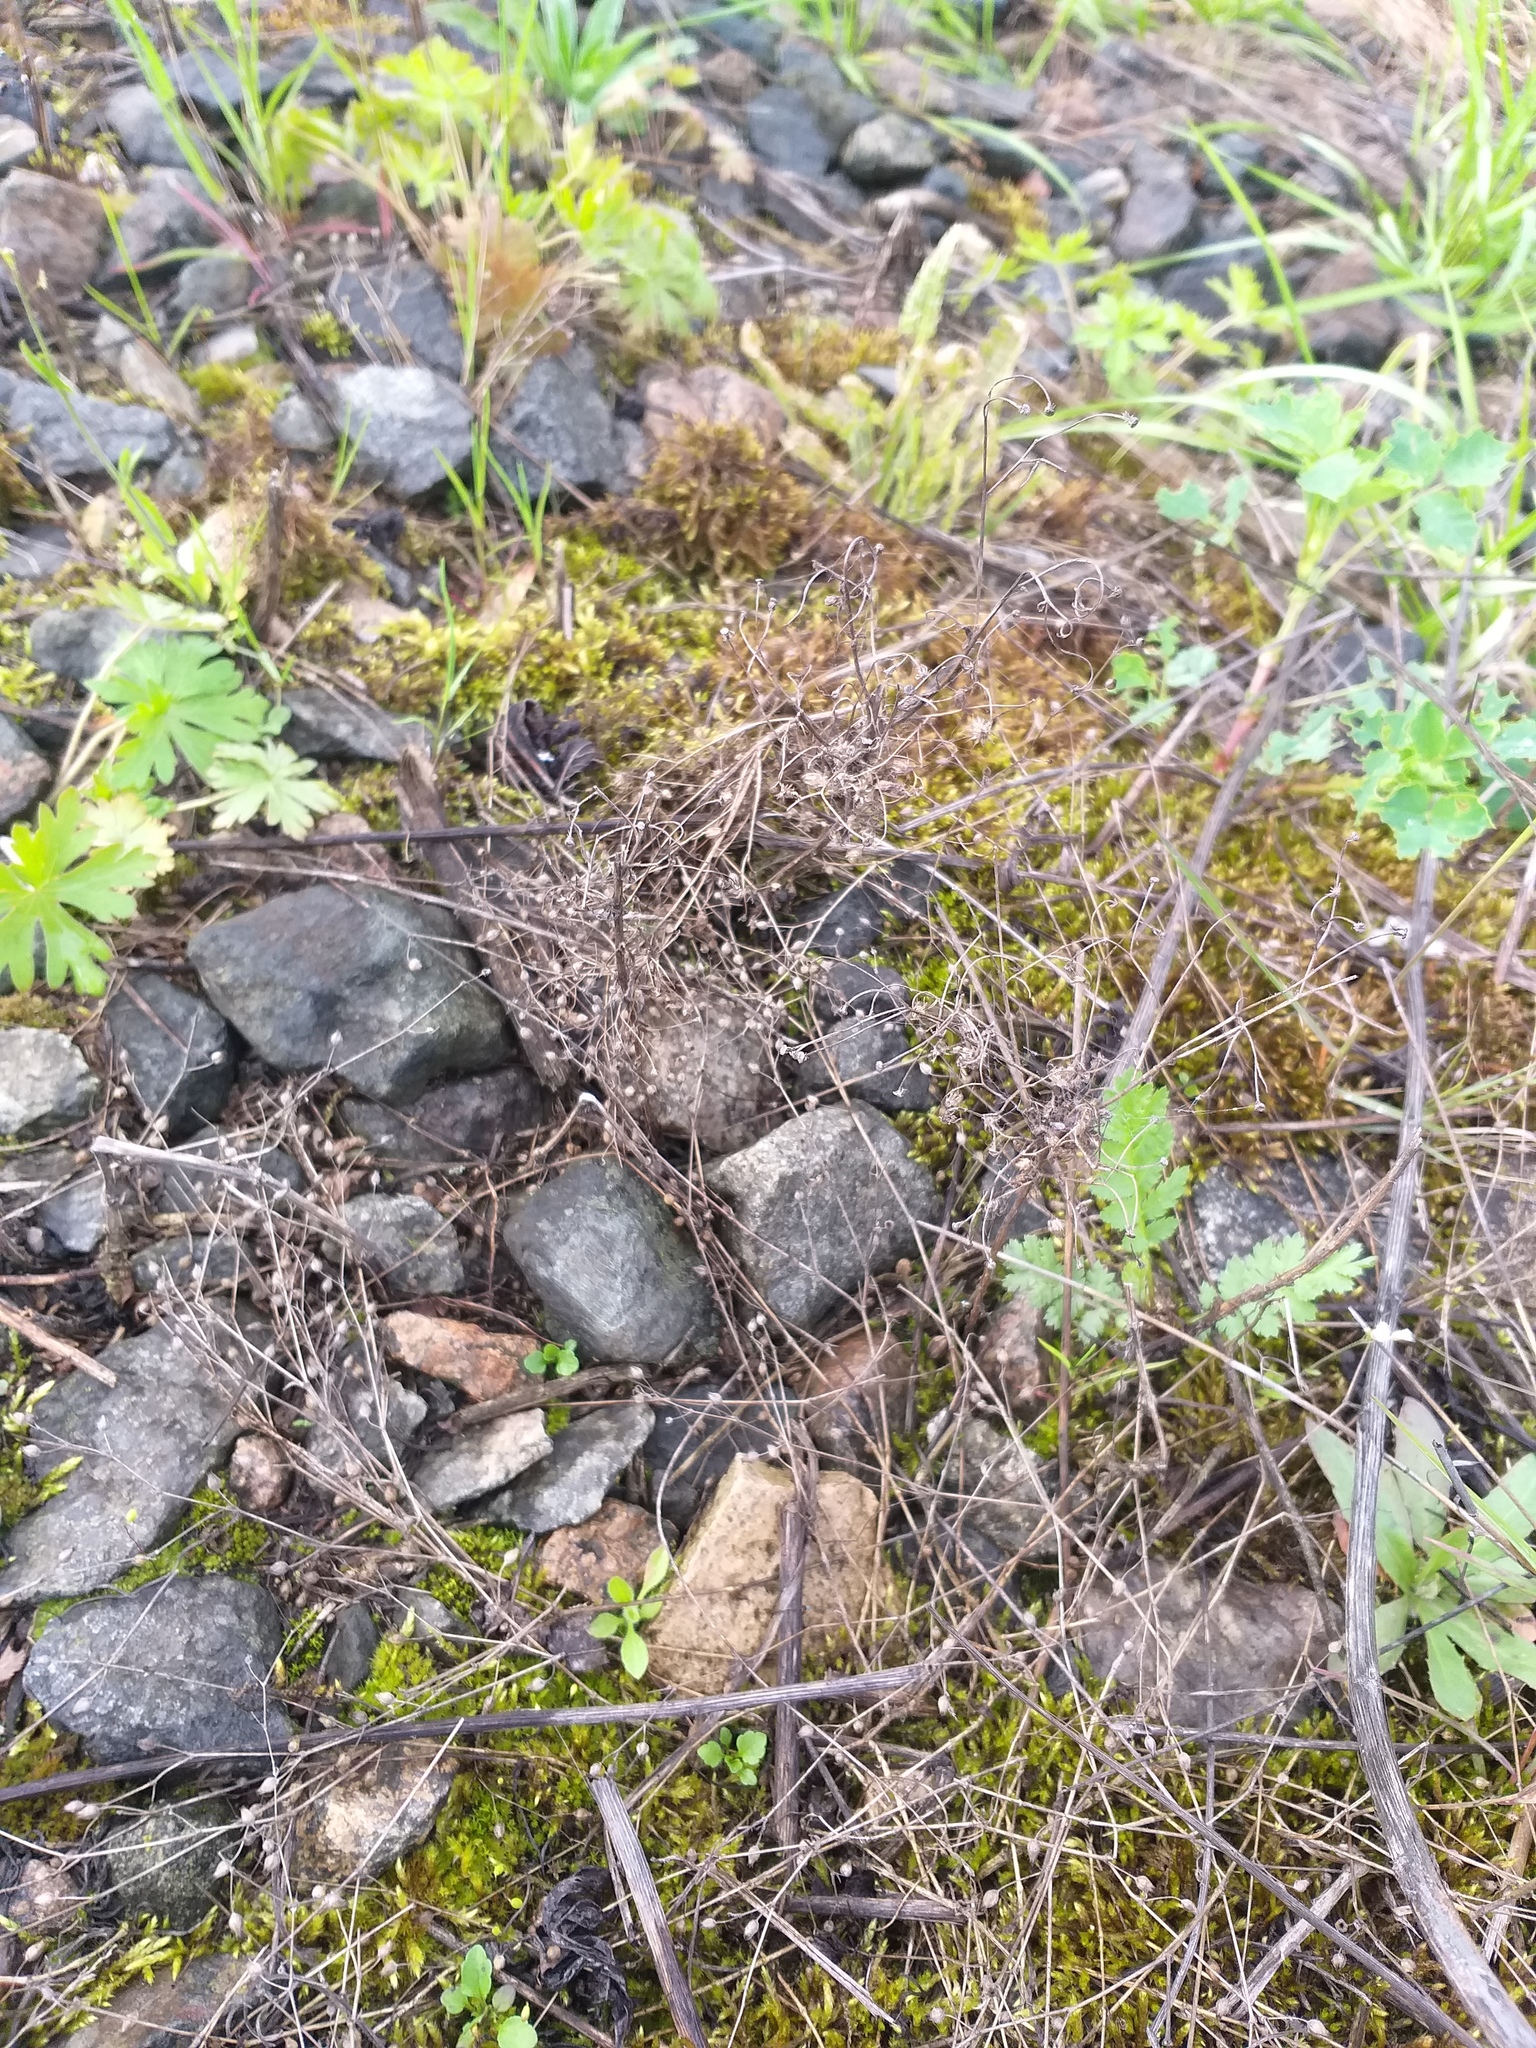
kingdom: Plantae
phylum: Tracheophyta
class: Magnoliopsida
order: Caryophyllales
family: Caryophyllaceae
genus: Arenaria
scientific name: Arenaria serpyllifolia
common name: Thyme-leaved sandwort
